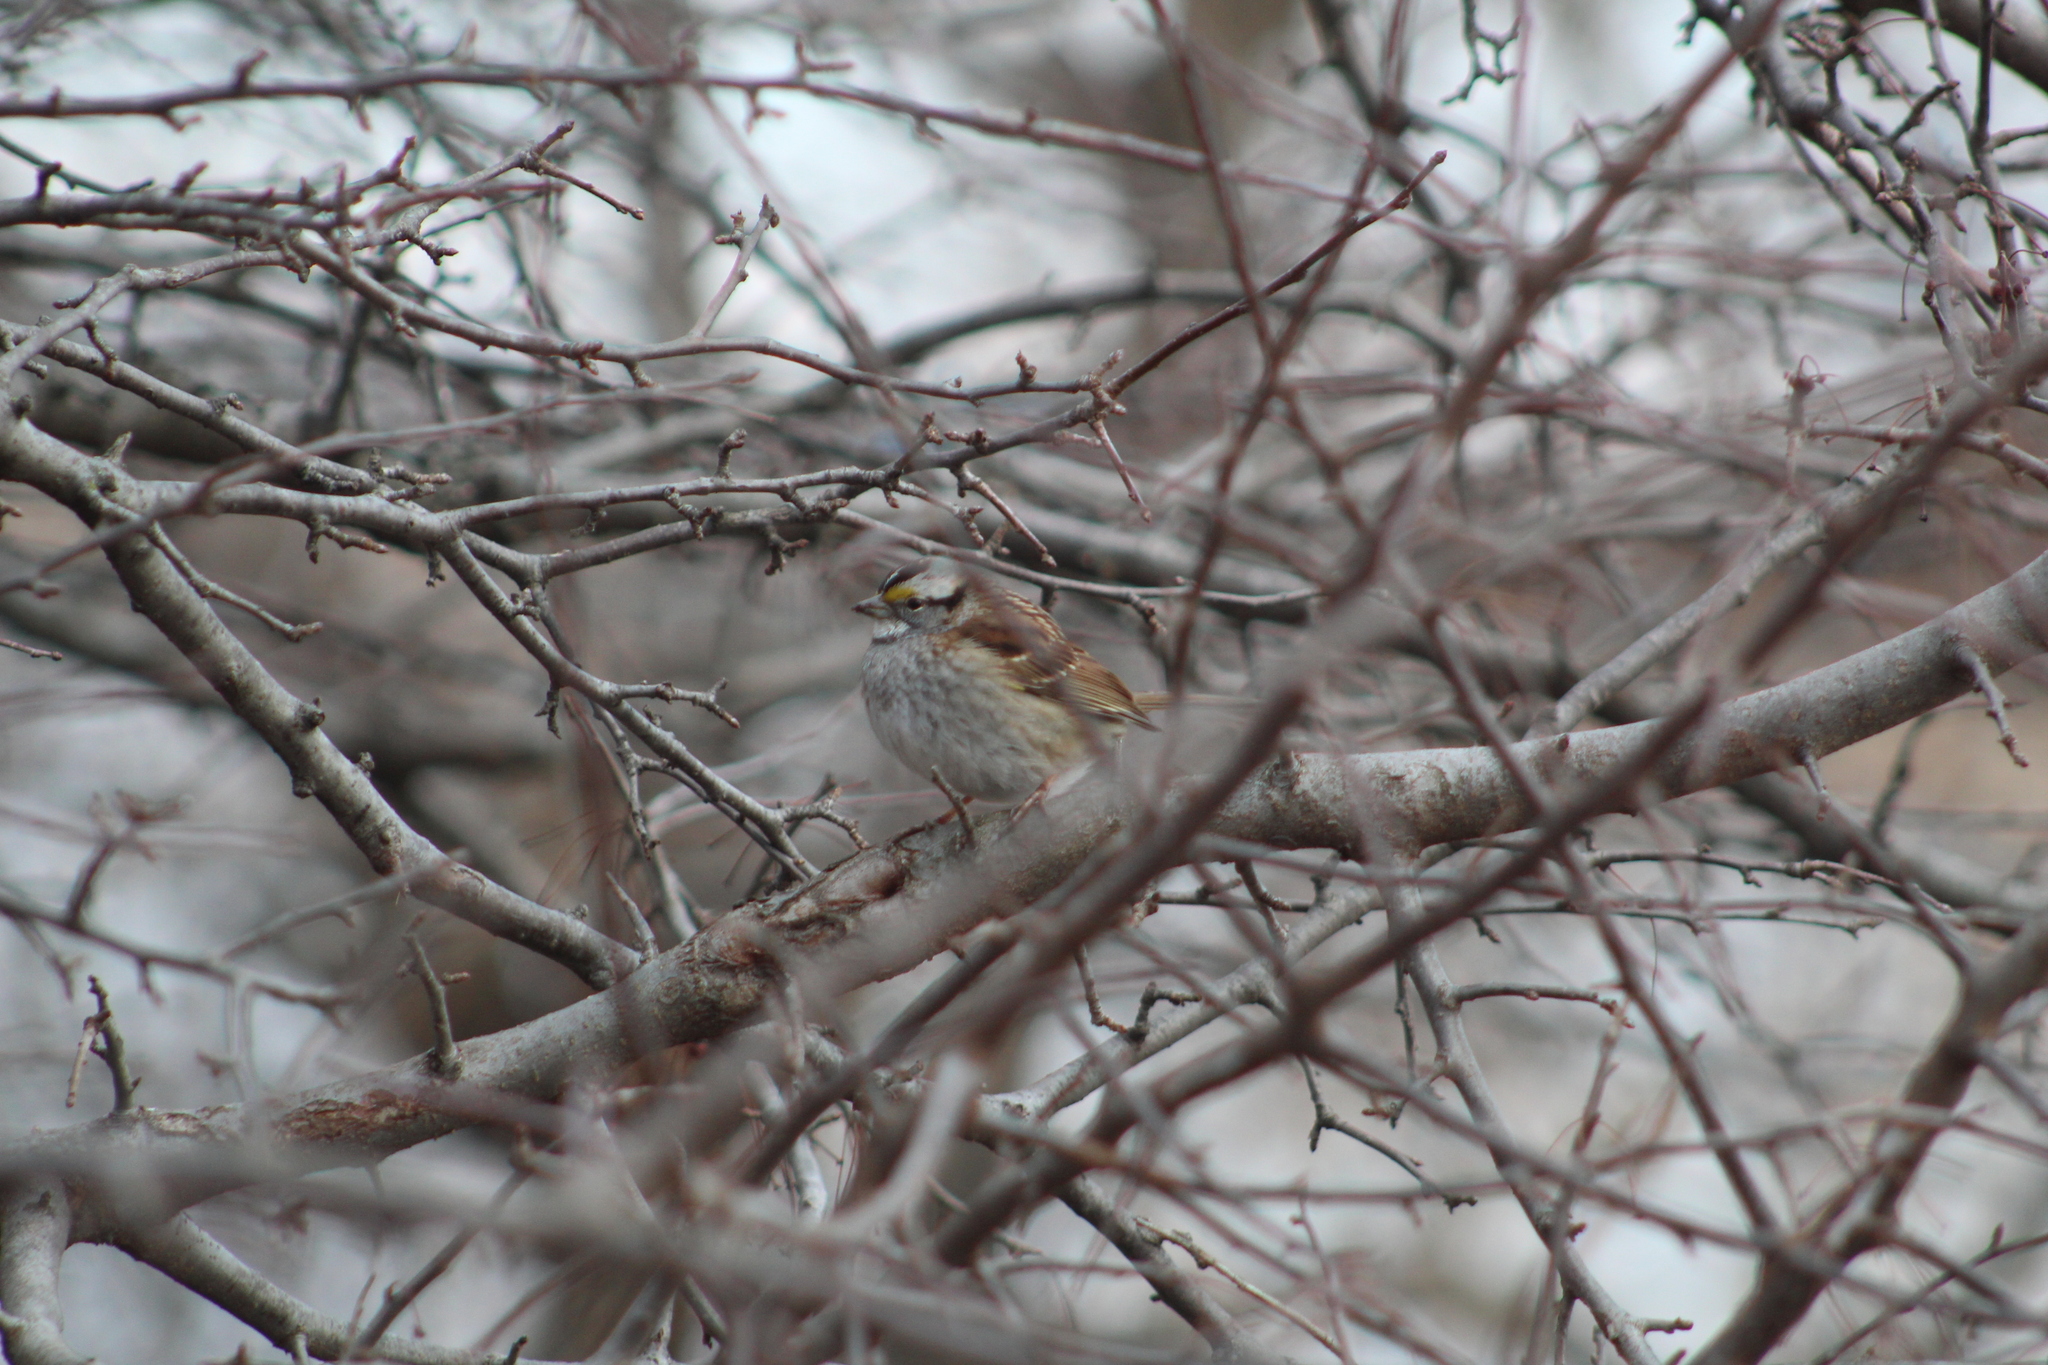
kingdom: Animalia
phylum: Chordata
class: Aves
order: Passeriformes
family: Passerellidae
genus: Zonotrichia
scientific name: Zonotrichia albicollis
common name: White-throated sparrow
